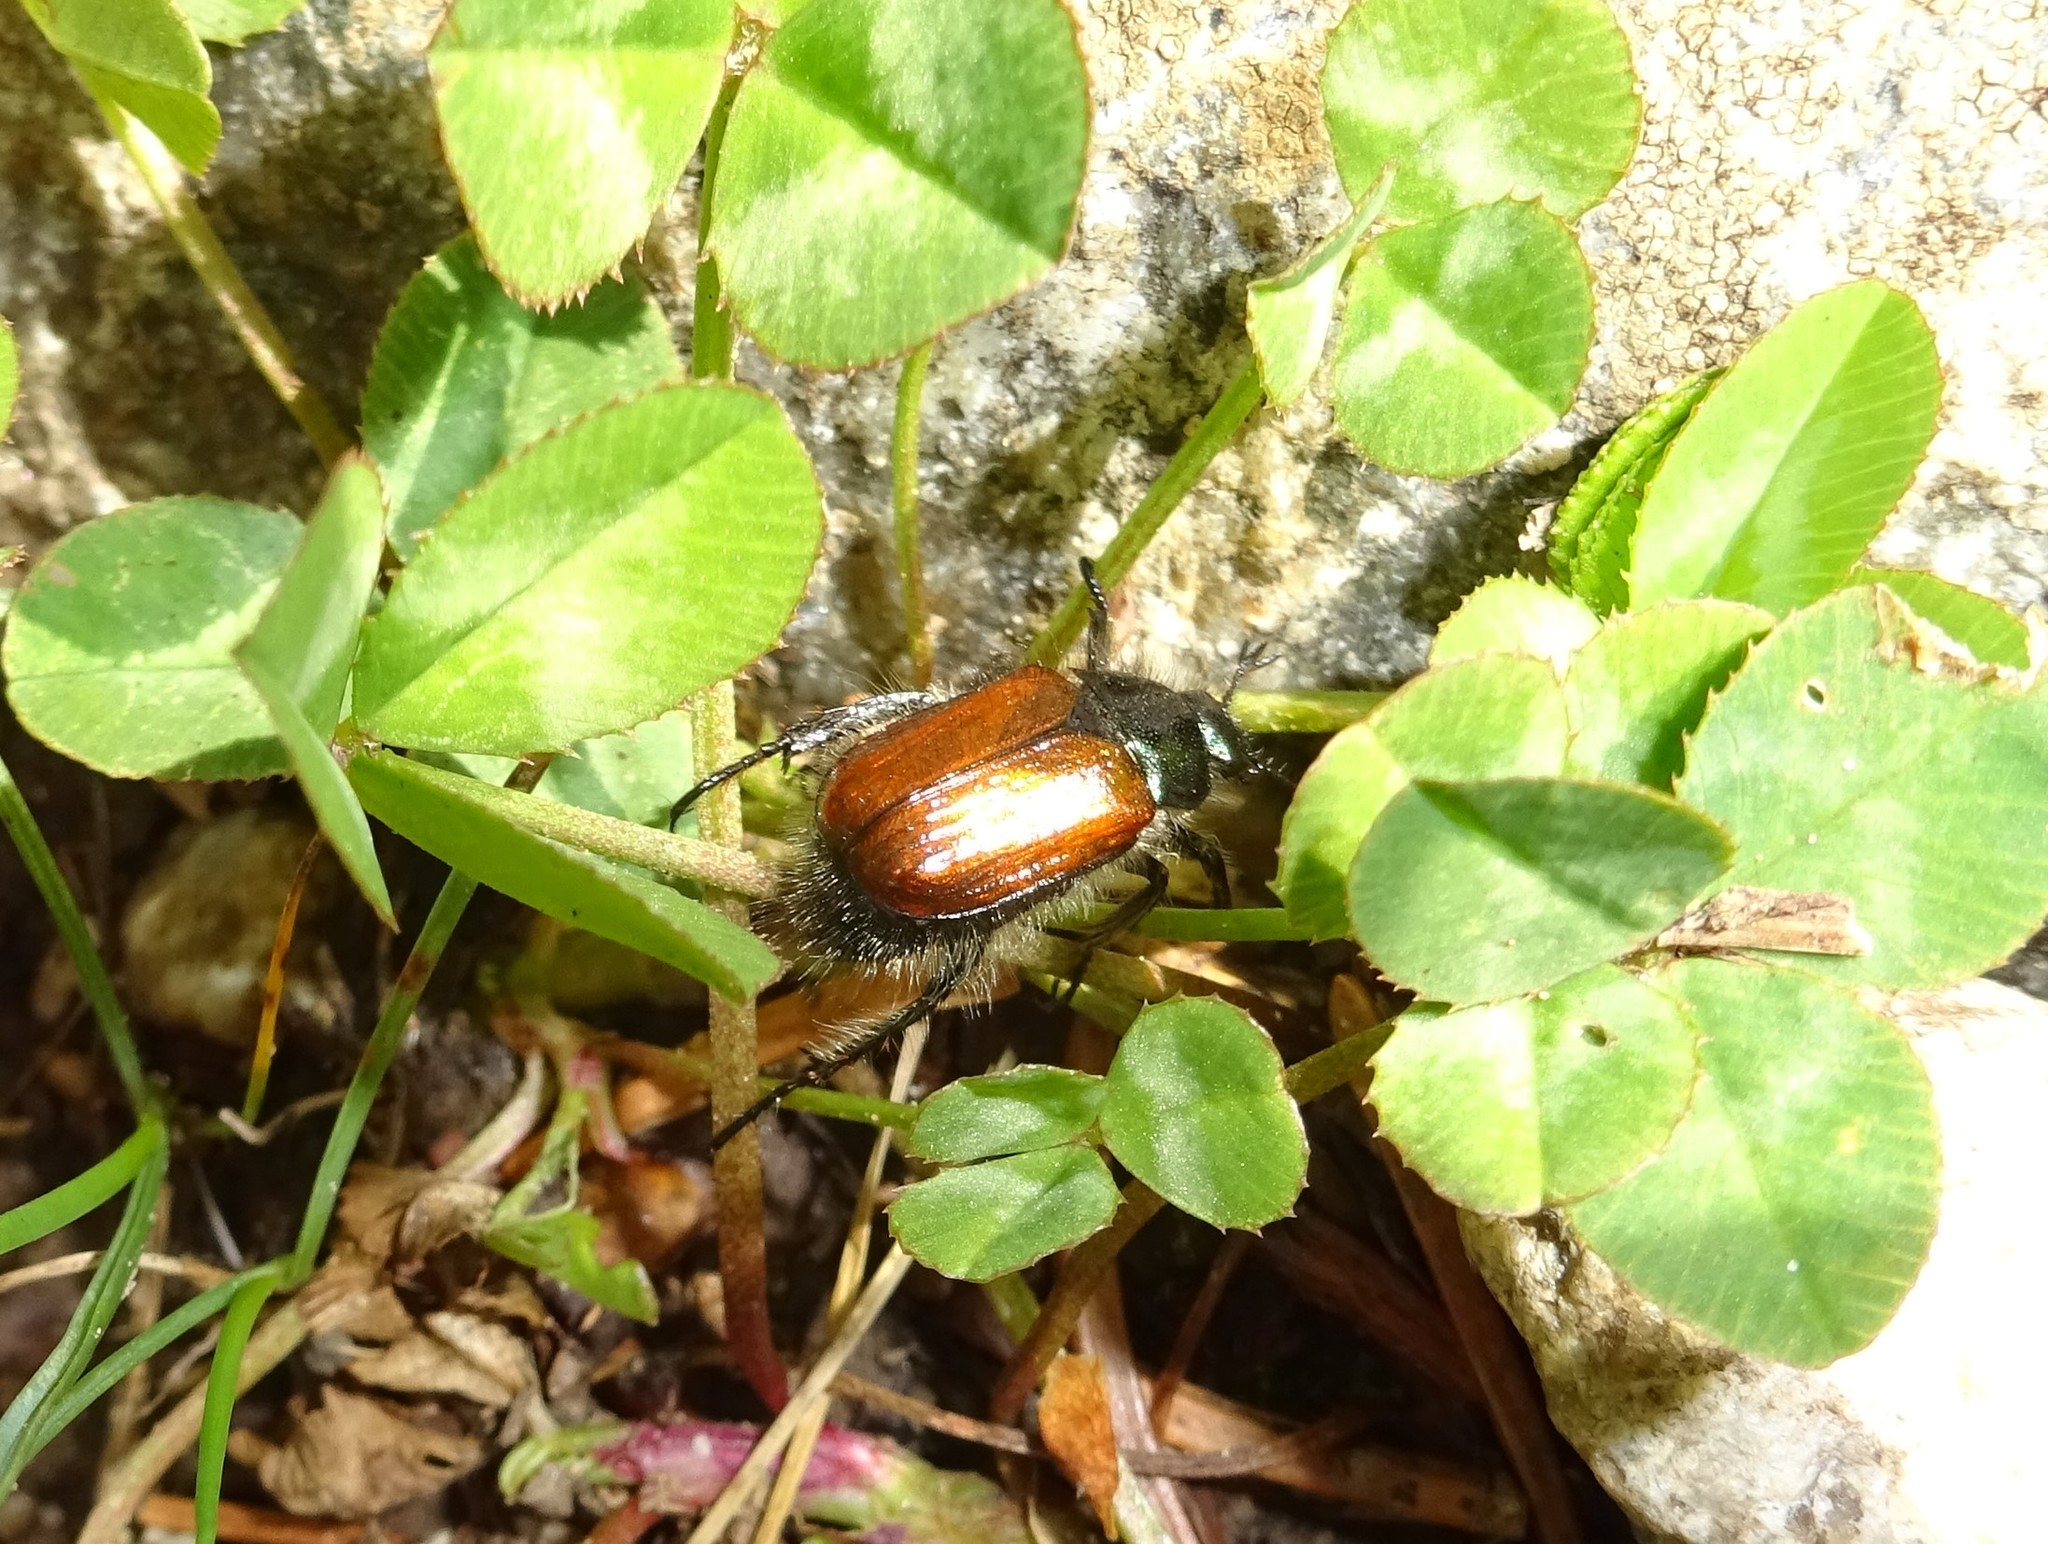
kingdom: Animalia
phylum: Arthropoda
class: Insecta
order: Coleoptera
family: Scarabaeidae
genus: Phyllopertha
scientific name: Phyllopertha horticola
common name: Garden chafer
